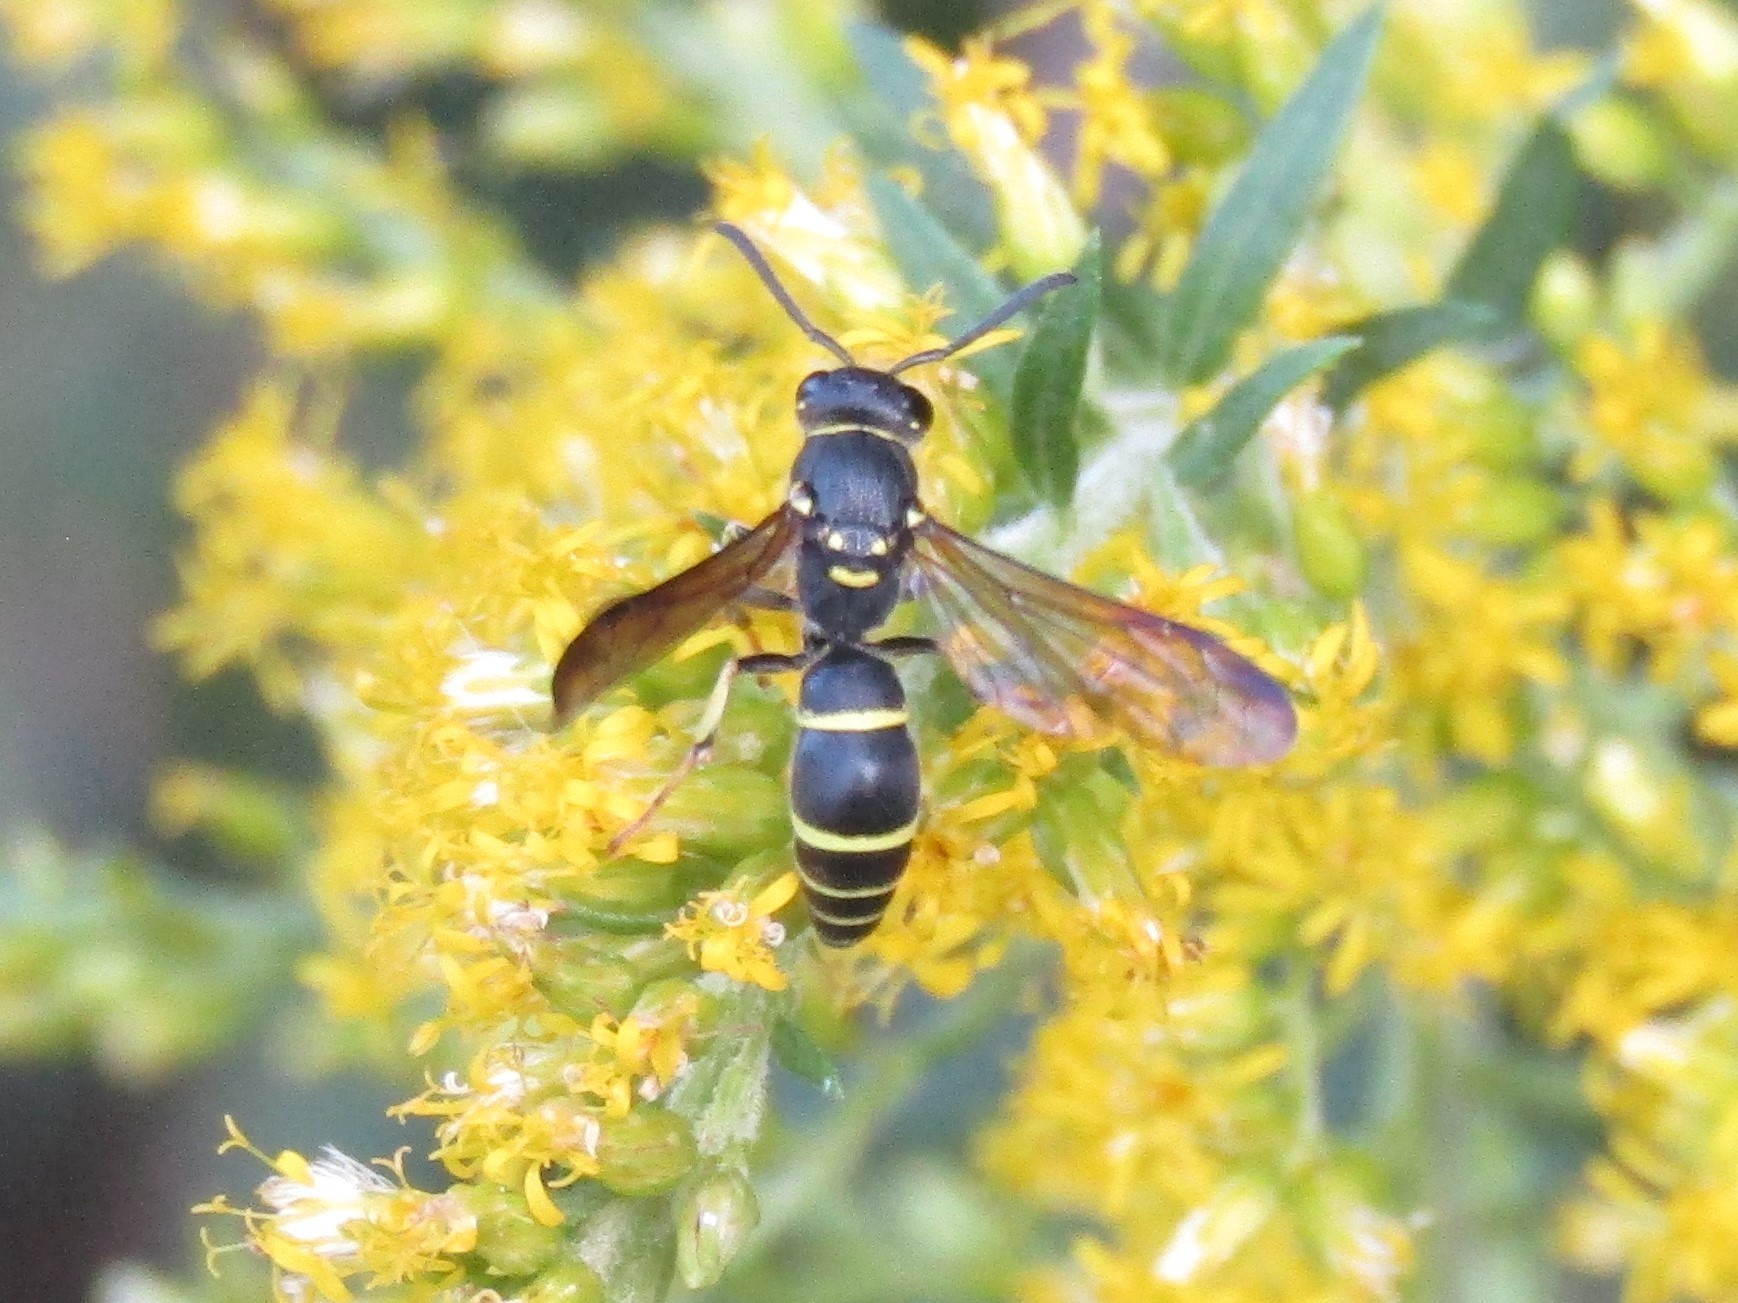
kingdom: Animalia
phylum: Arthropoda
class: Insecta
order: Hymenoptera
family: Vespidae
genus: Ancistrocerus
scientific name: Ancistrocerus adiabatus
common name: Bramble mason wasp
